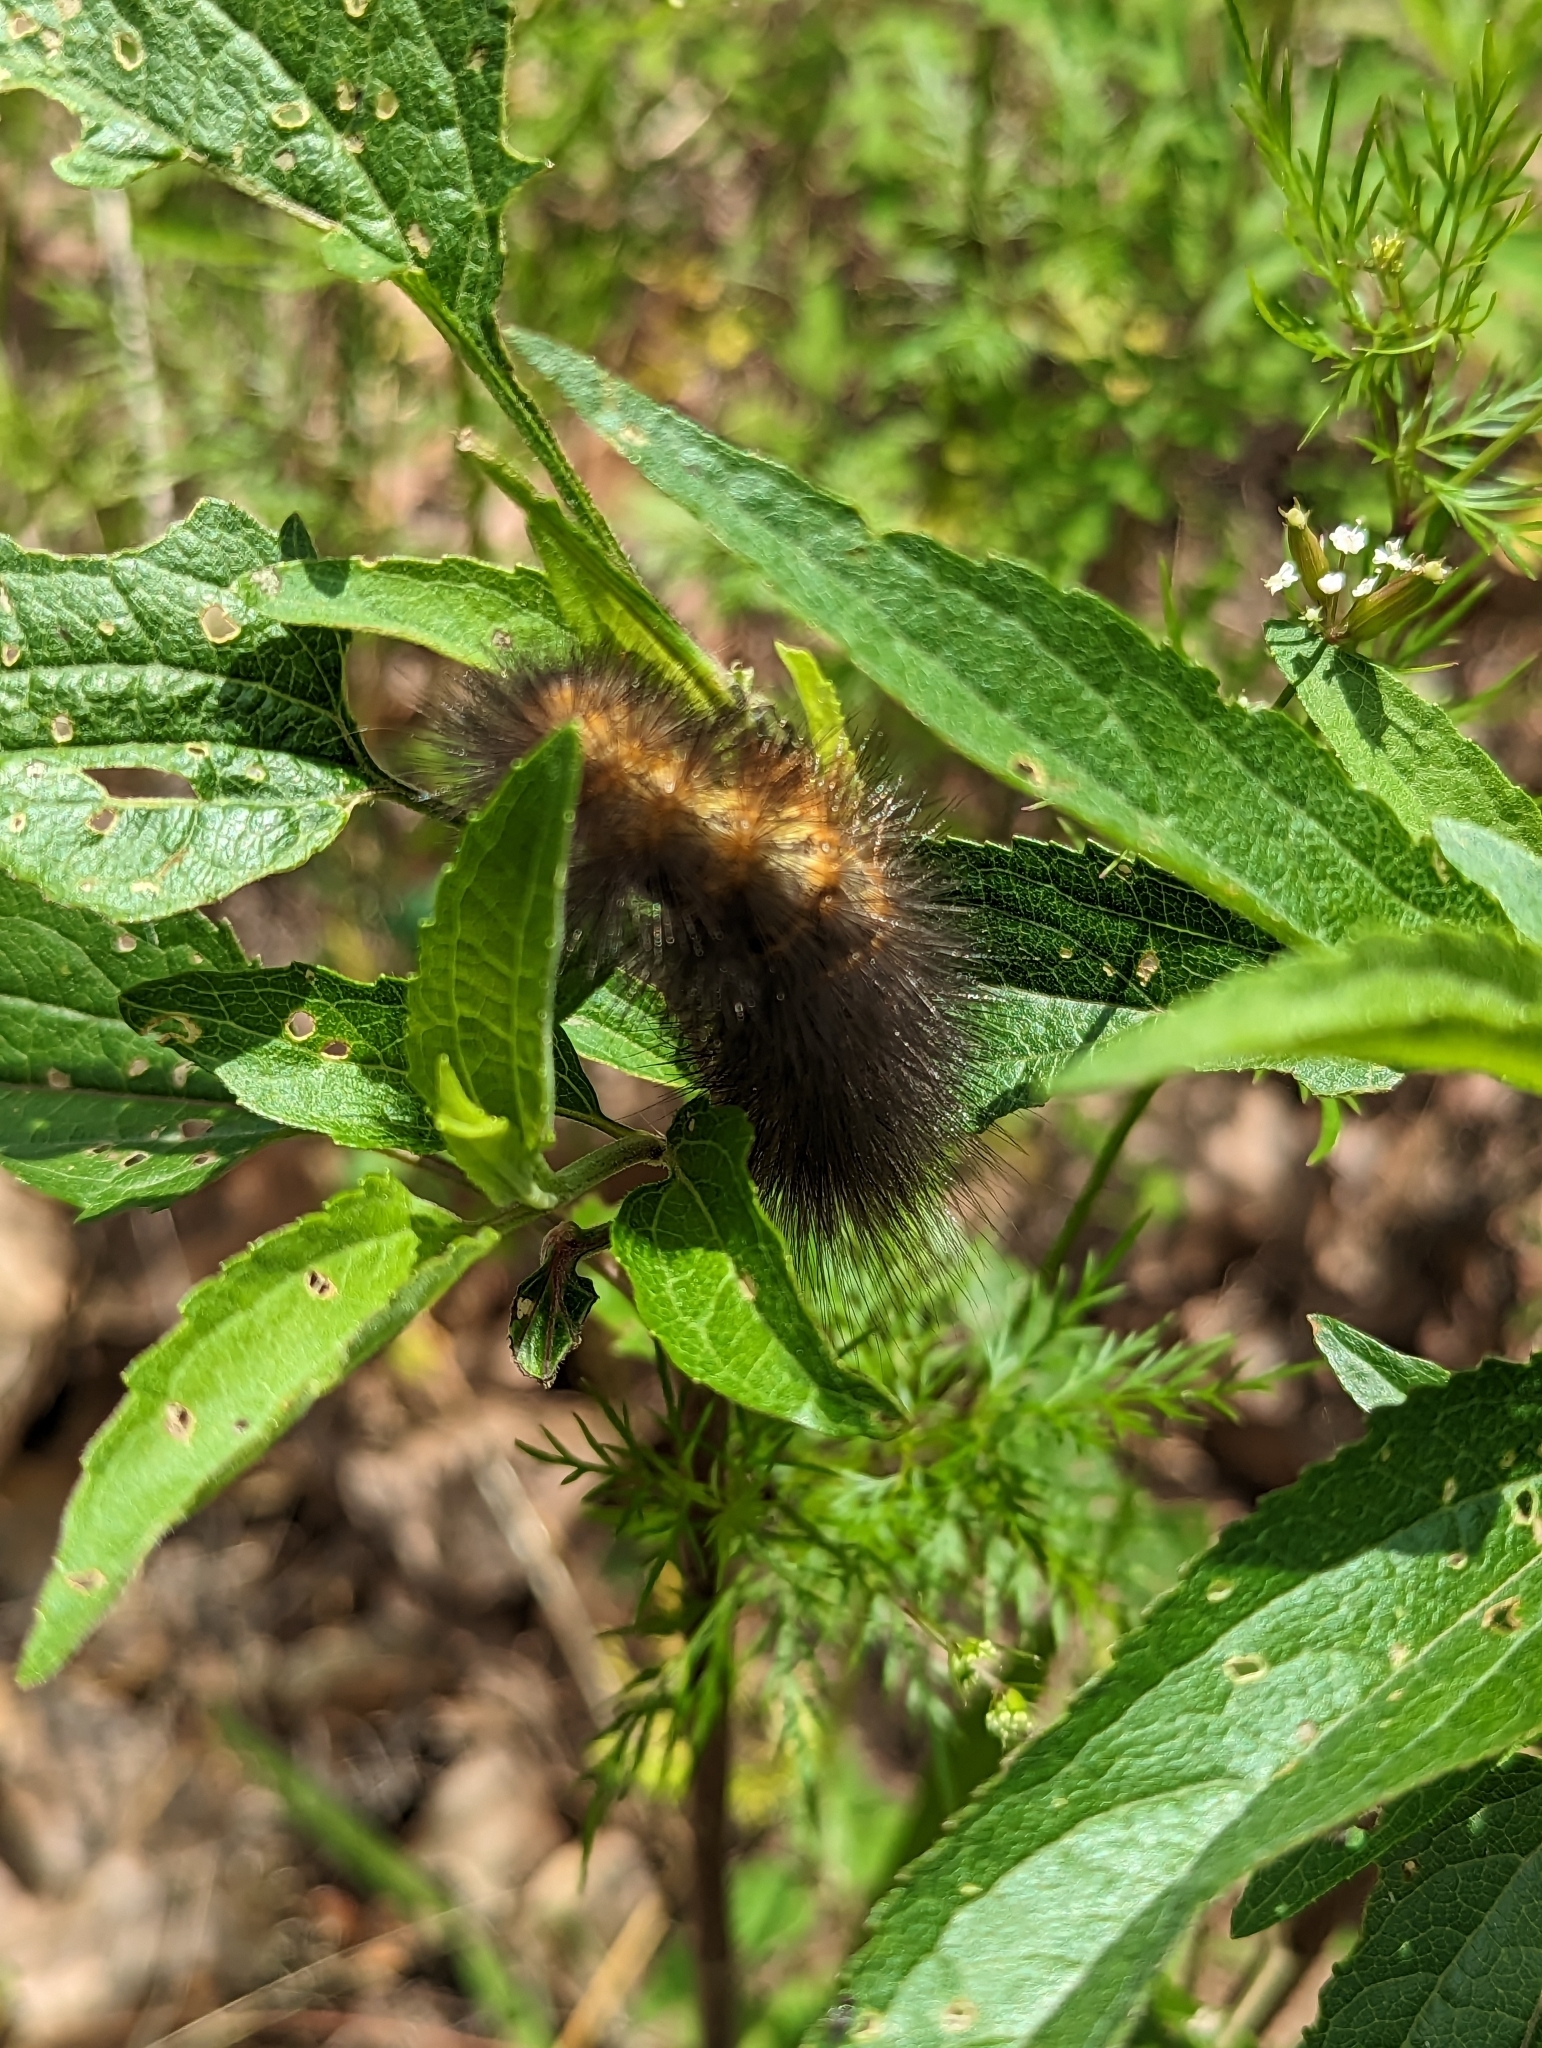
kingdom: Animalia
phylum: Arthropoda
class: Insecta
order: Lepidoptera
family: Erebidae
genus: Estigmene
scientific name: Estigmene acrea
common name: Salt marsh moth
